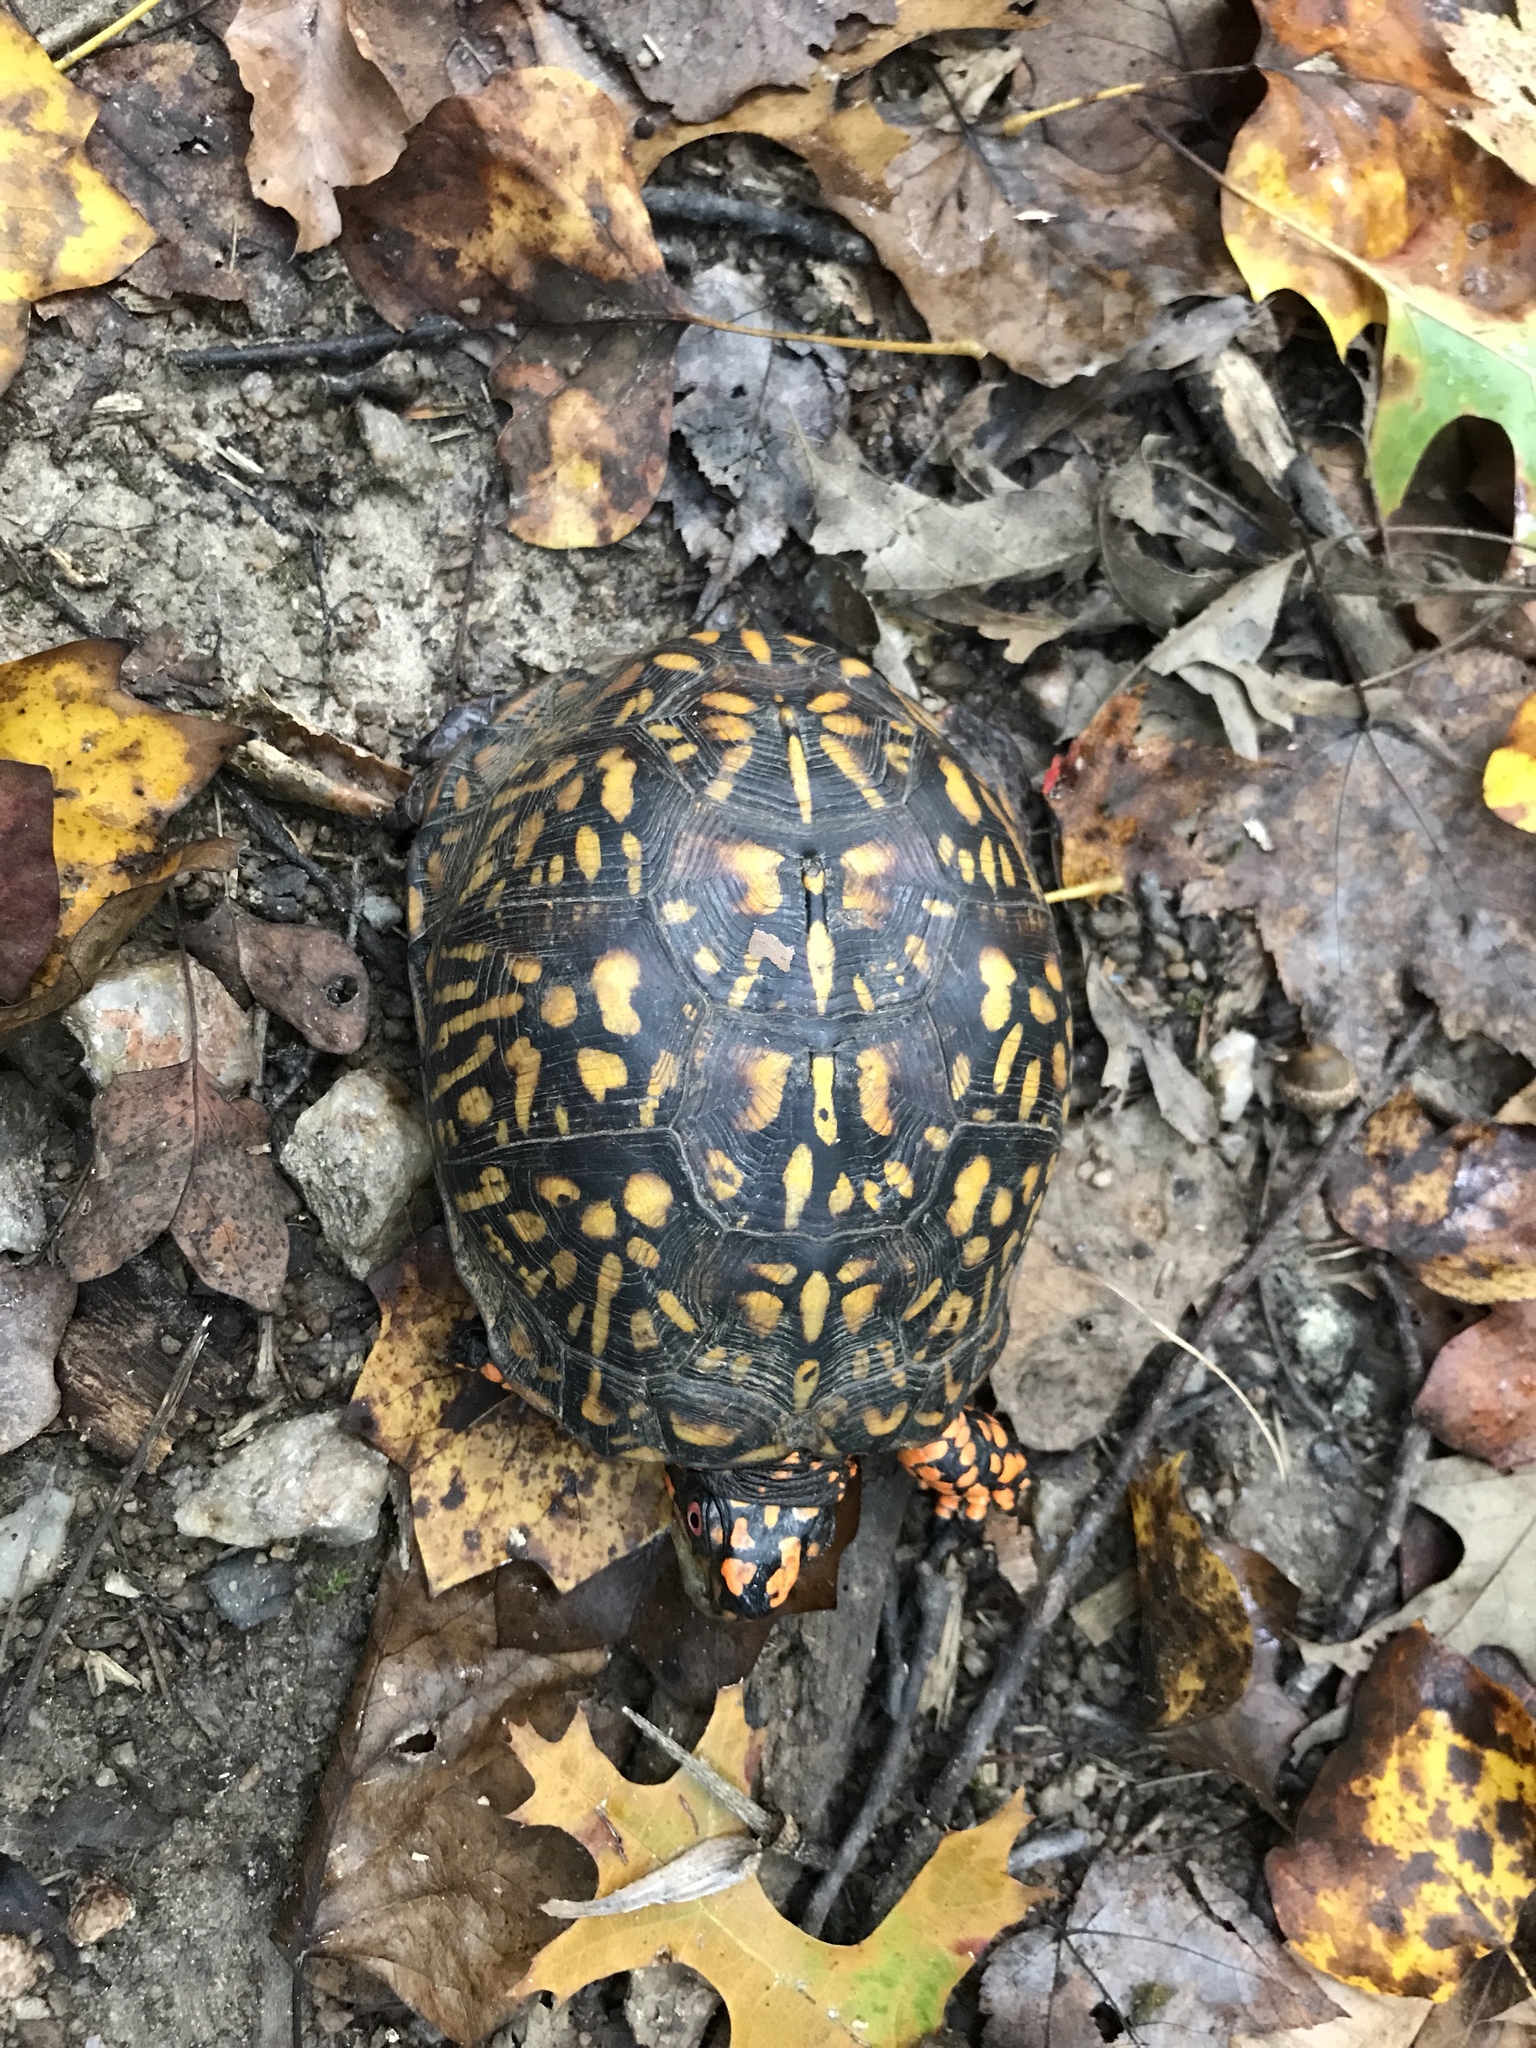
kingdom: Animalia
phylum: Chordata
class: Testudines
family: Emydidae
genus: Terrapene
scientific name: Terrapene carolina
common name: Common box turtle
